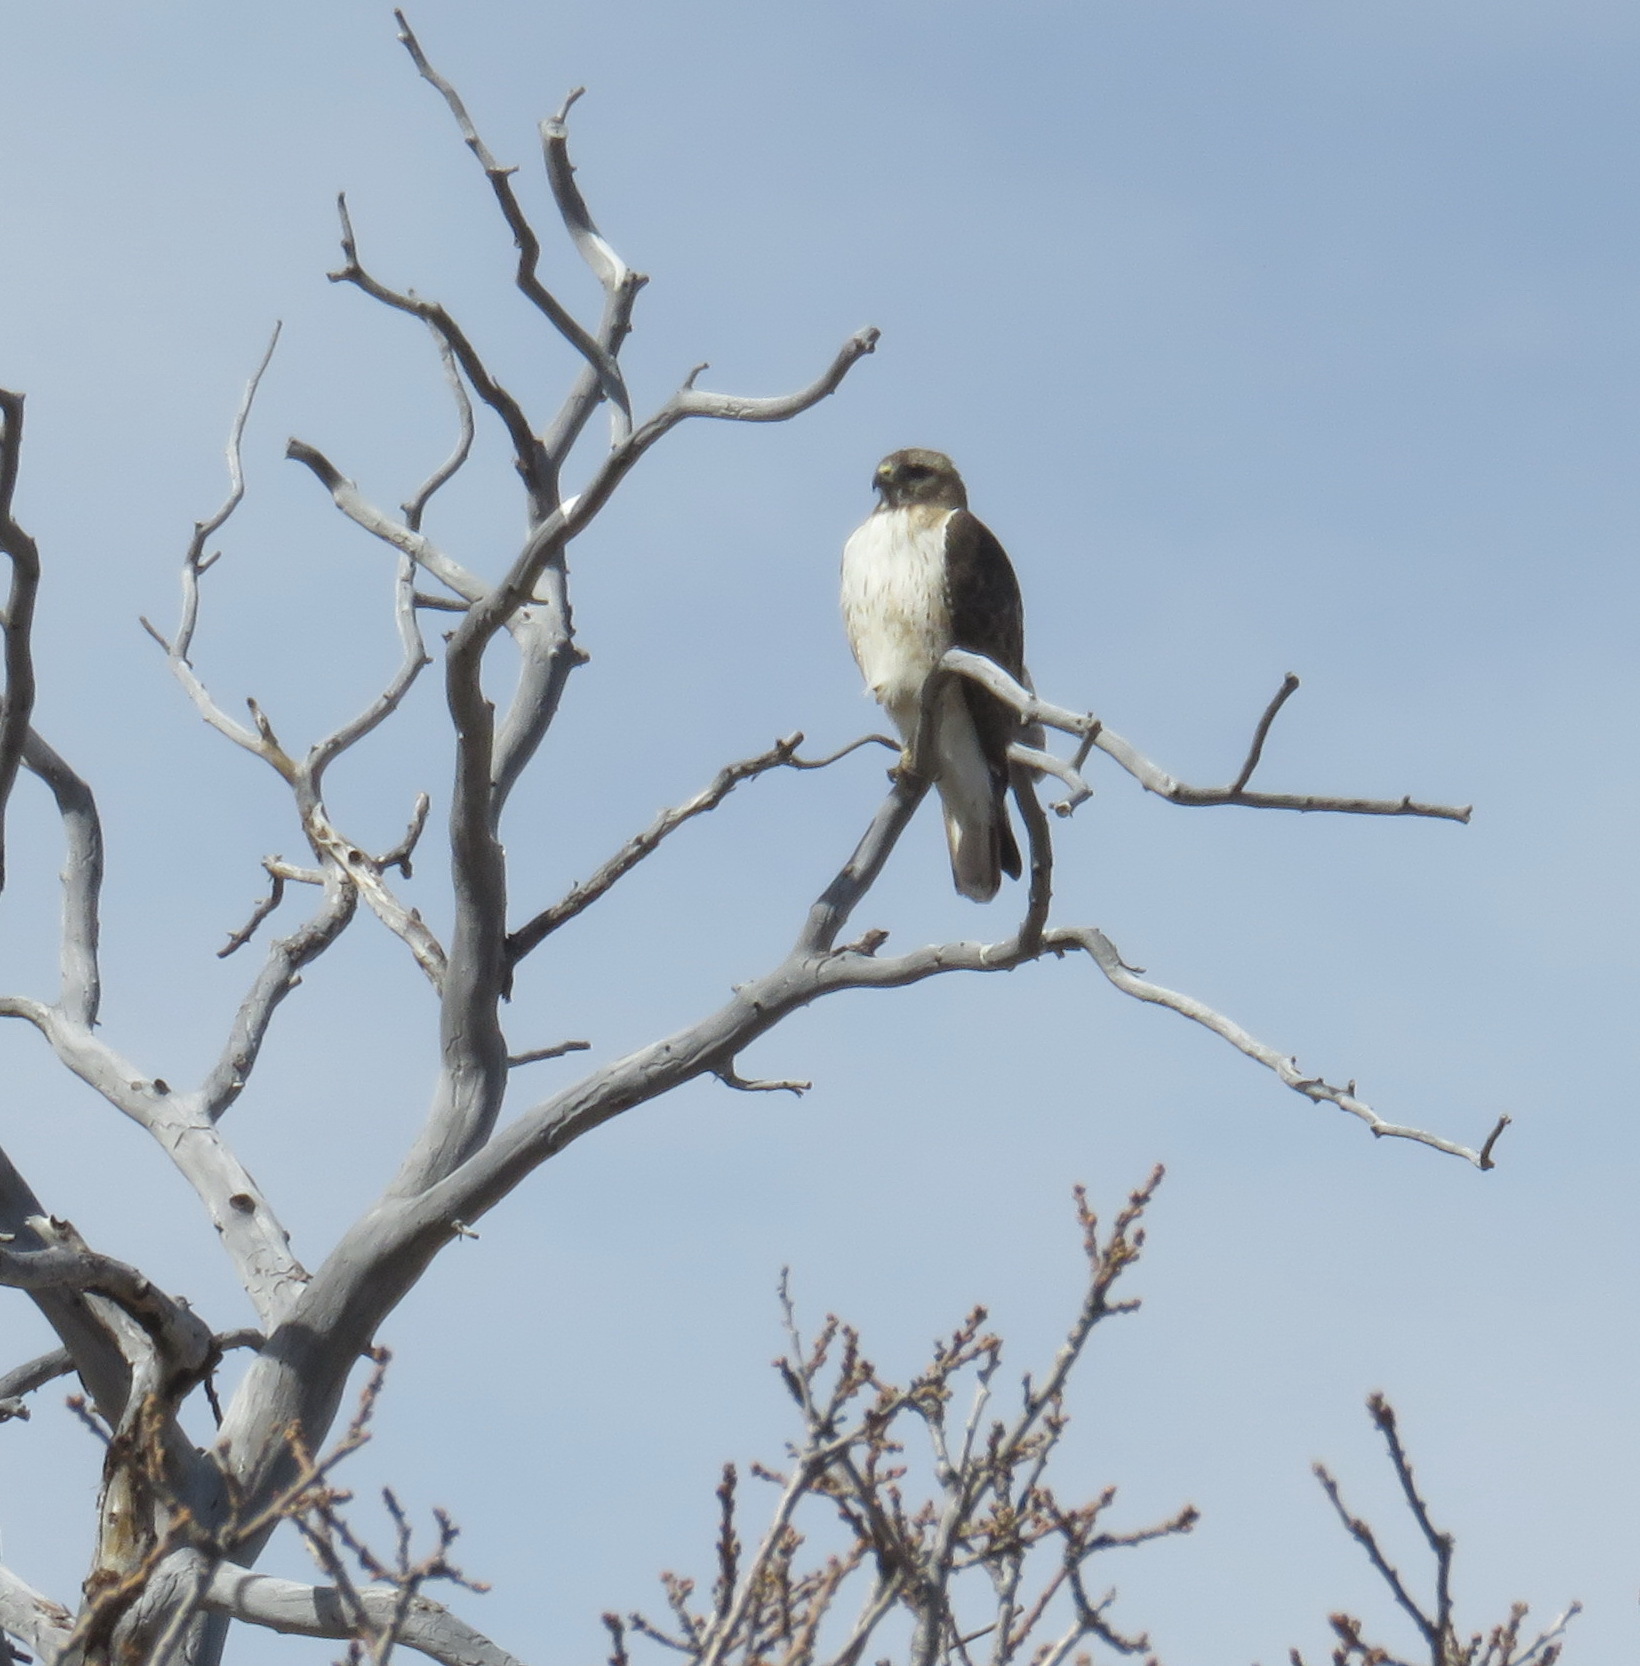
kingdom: Animalia
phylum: Chordata
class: Aves
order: Accipitriformes
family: Accipitridae
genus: Buteo
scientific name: Buteo jamaicensis
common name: Red-tailed hawk
